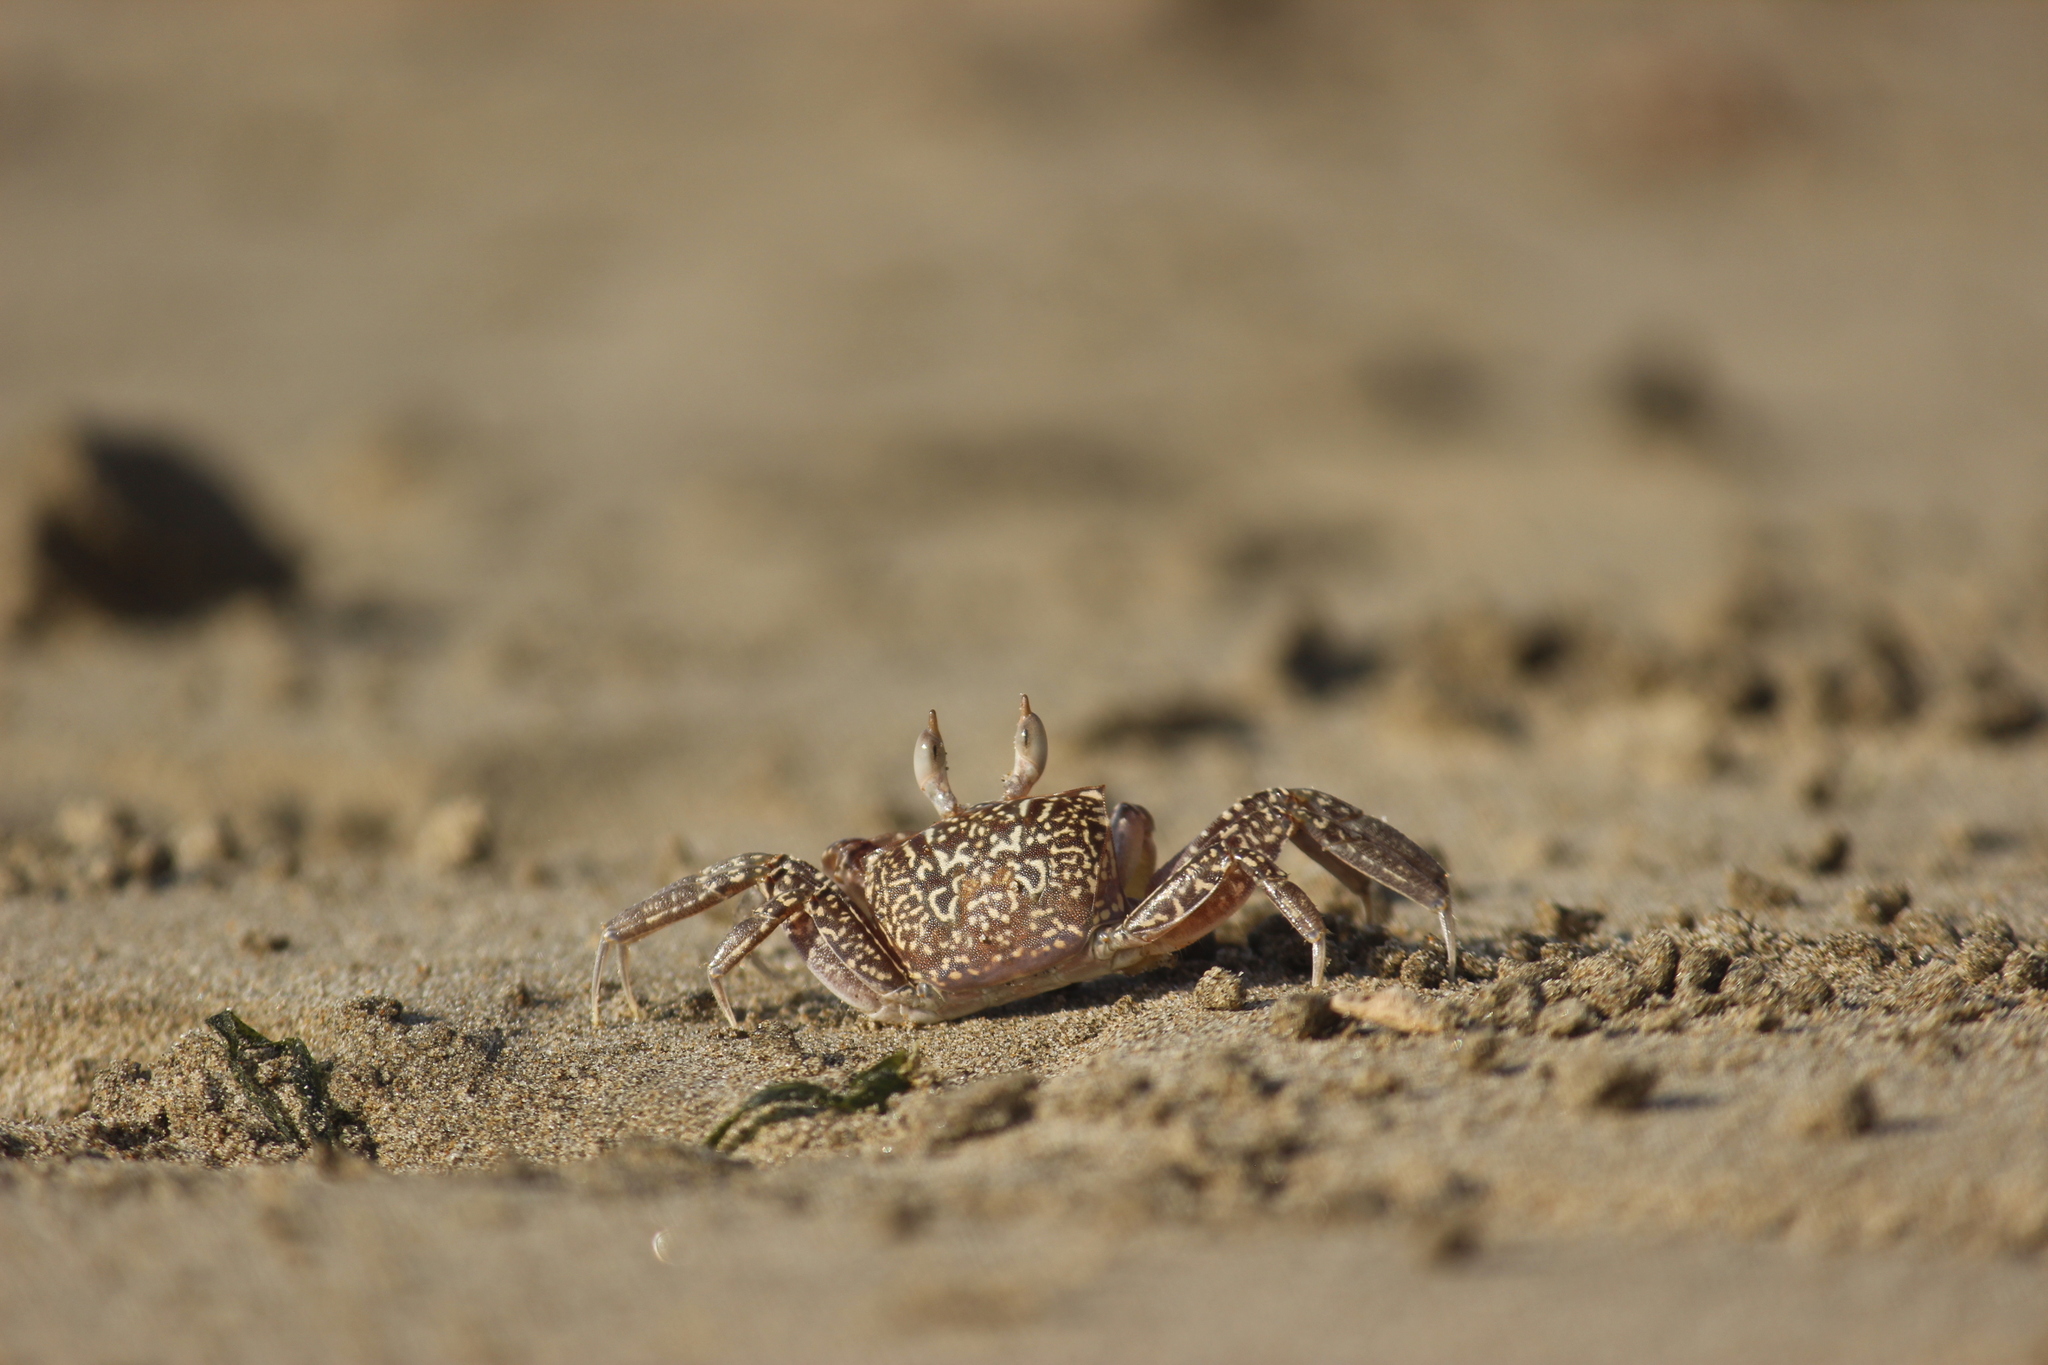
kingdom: Animalia
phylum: Arthropoda
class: Malacostraca
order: Decapoda
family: Ocypodidae
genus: Ocypode
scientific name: Ocypode gaudichaudii
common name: Pacific ghost crab
